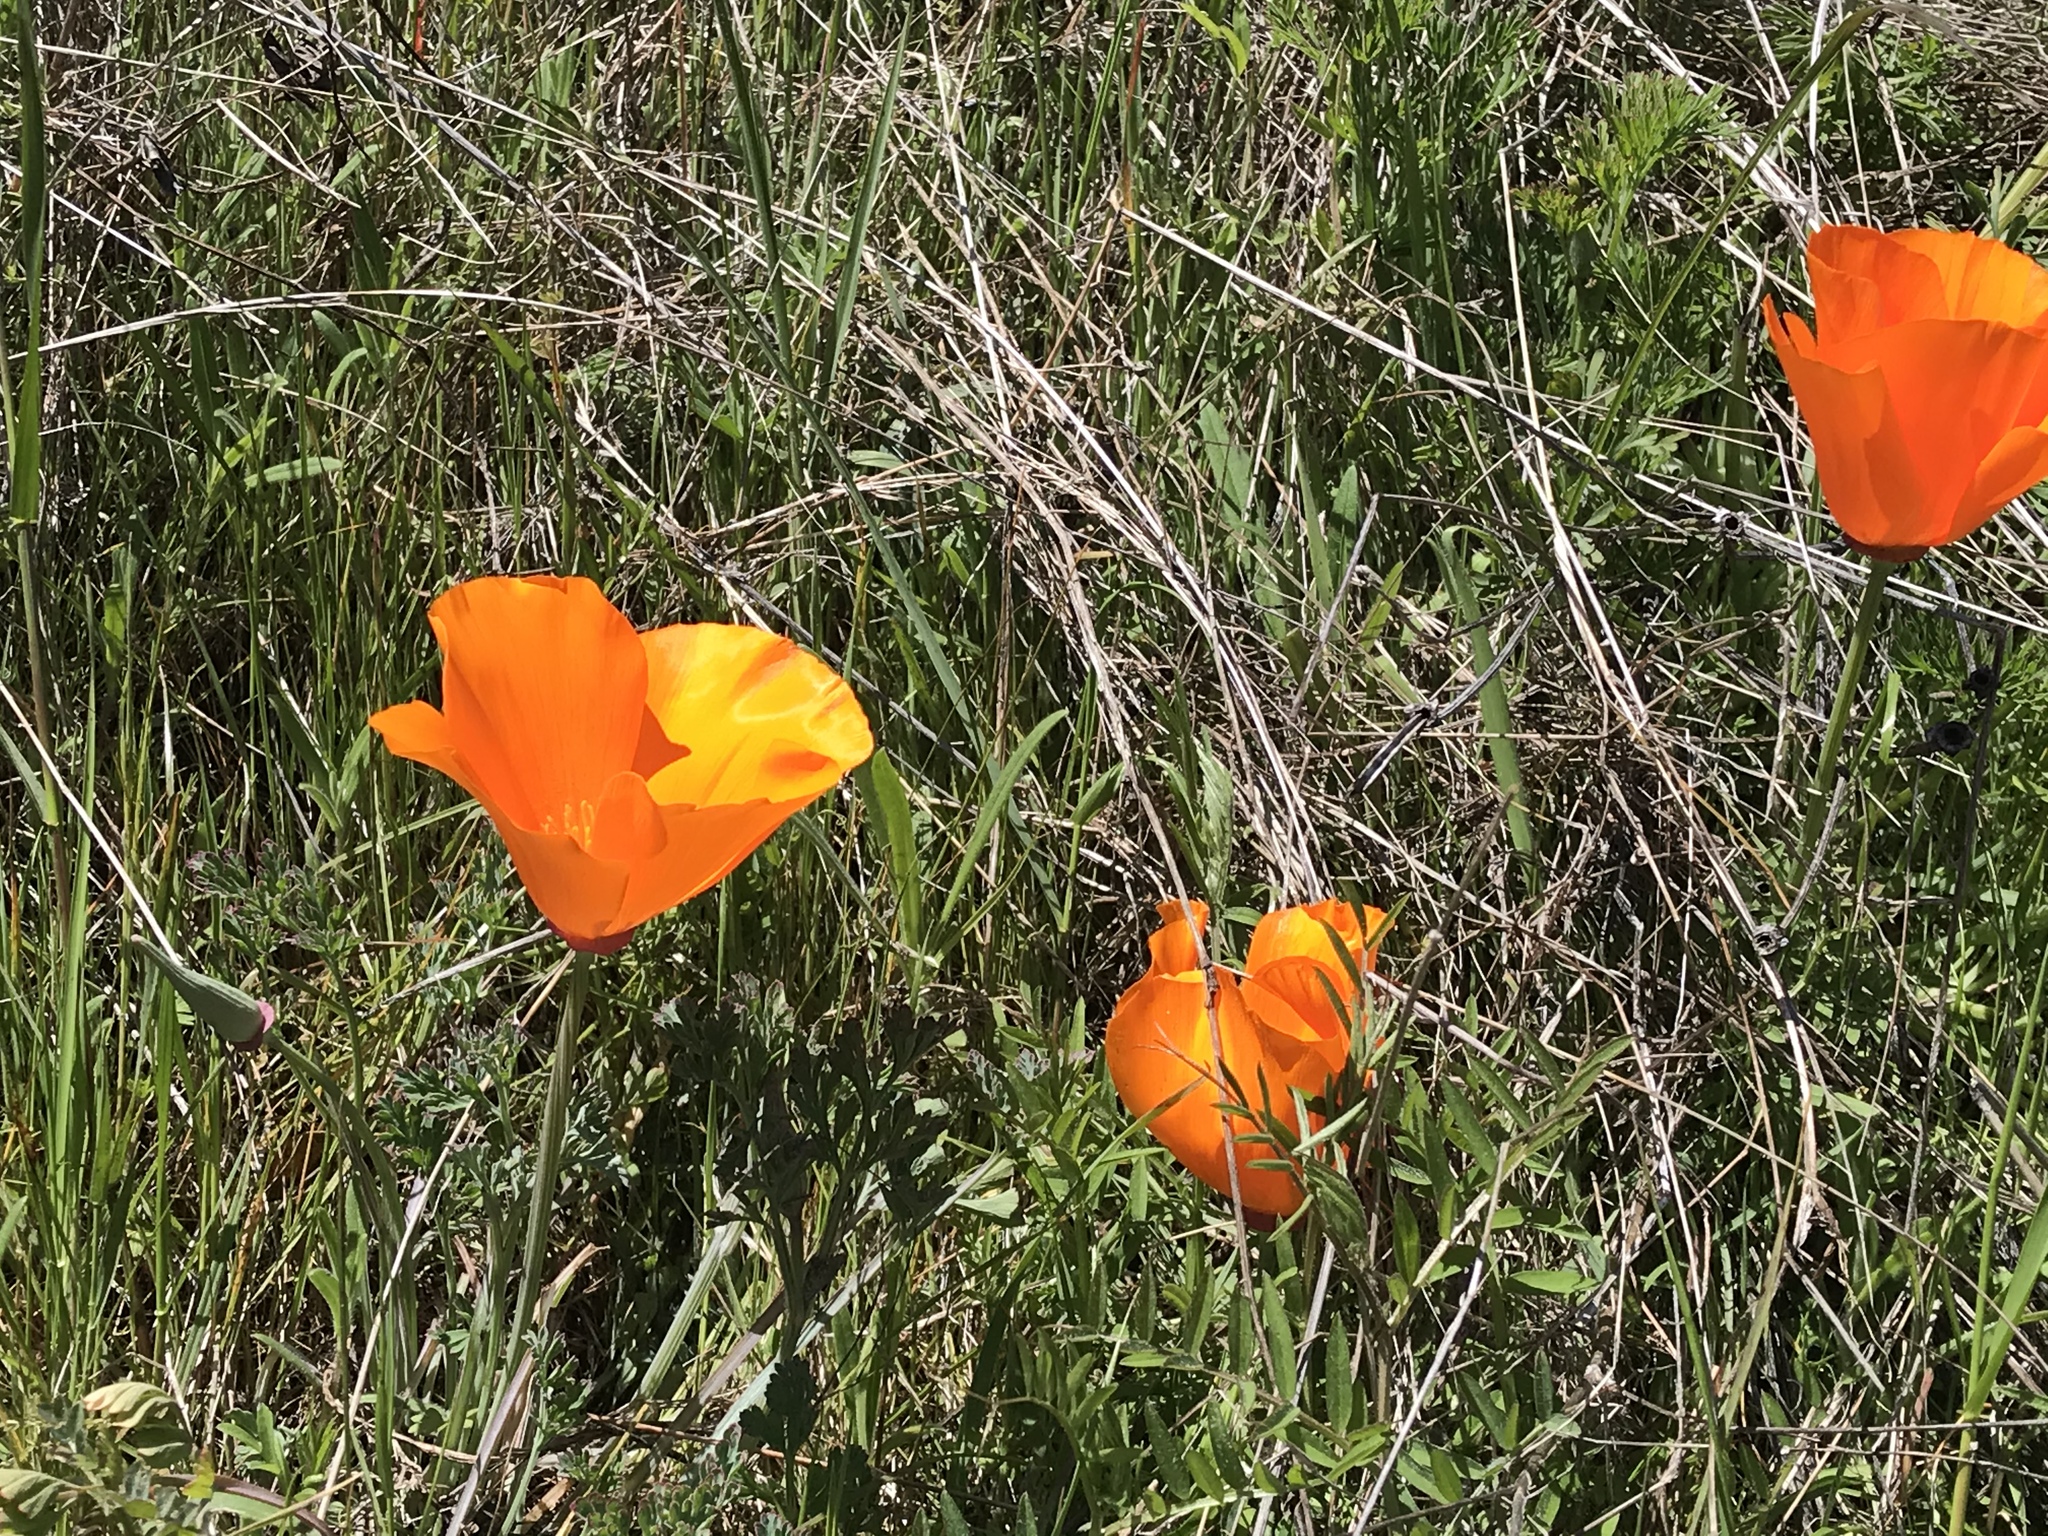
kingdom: Plantae
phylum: Tracheophyta
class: Magnoliopsida
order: Ranunculales
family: Papaveraceae
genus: Eschscholzia
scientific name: Eschscholzia californica
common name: California poppy
